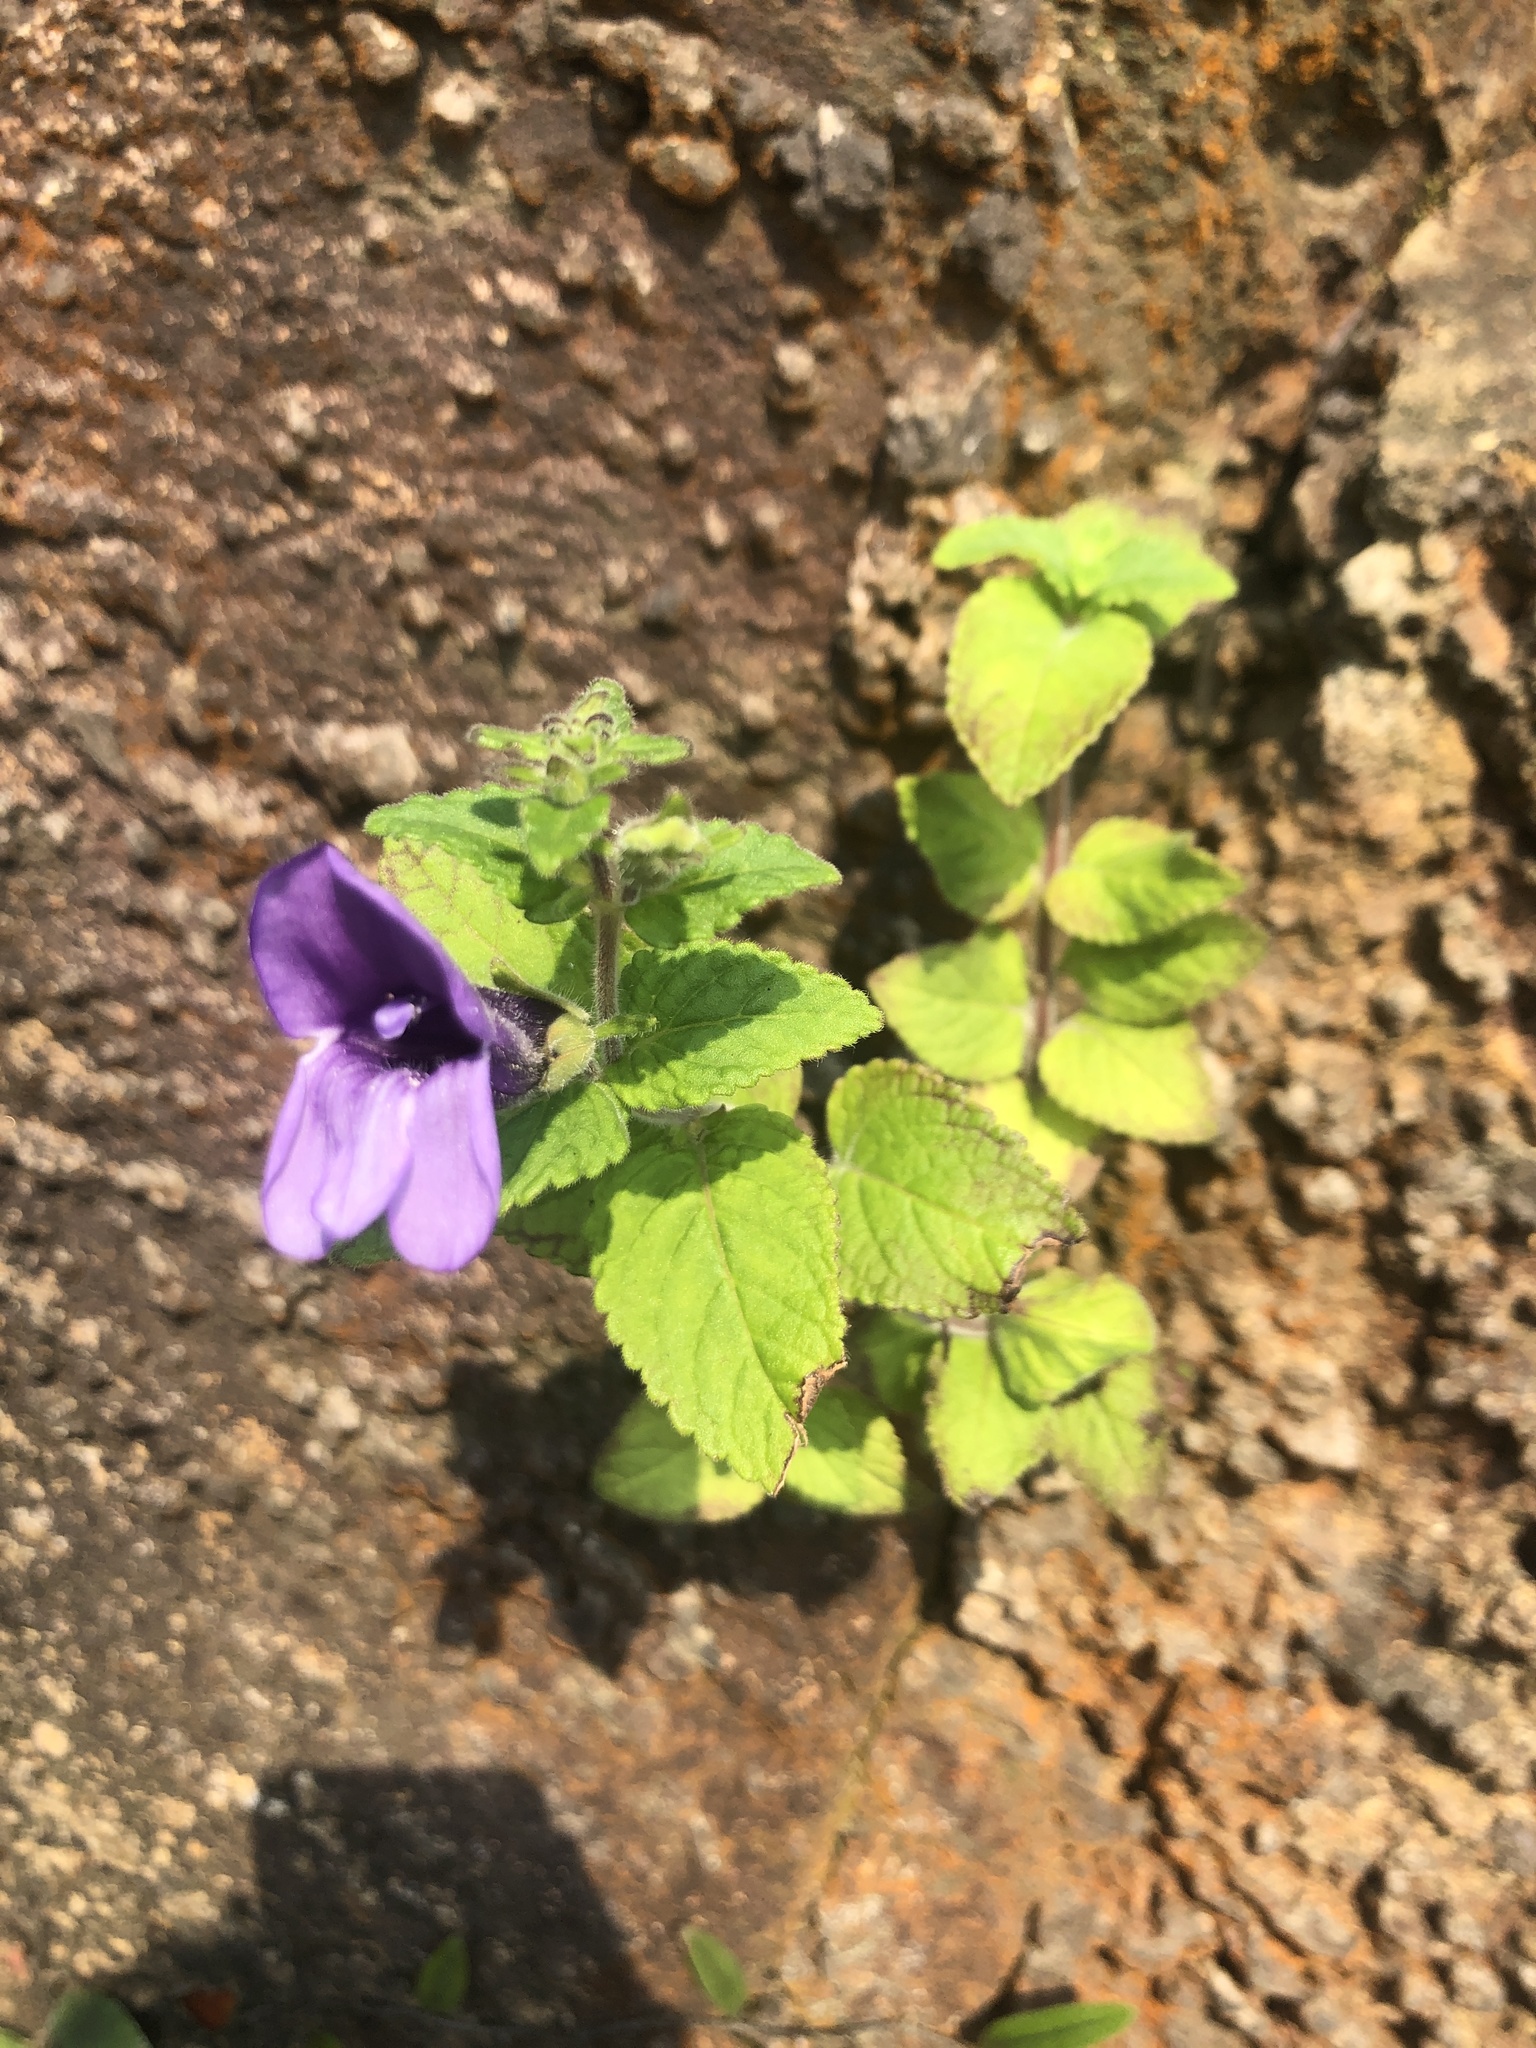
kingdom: Plantae
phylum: Tracheophyta
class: Magnoliopsida
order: Lamiales
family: Plantaginaceae
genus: Adenosma
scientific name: Adenosma glutinosa
